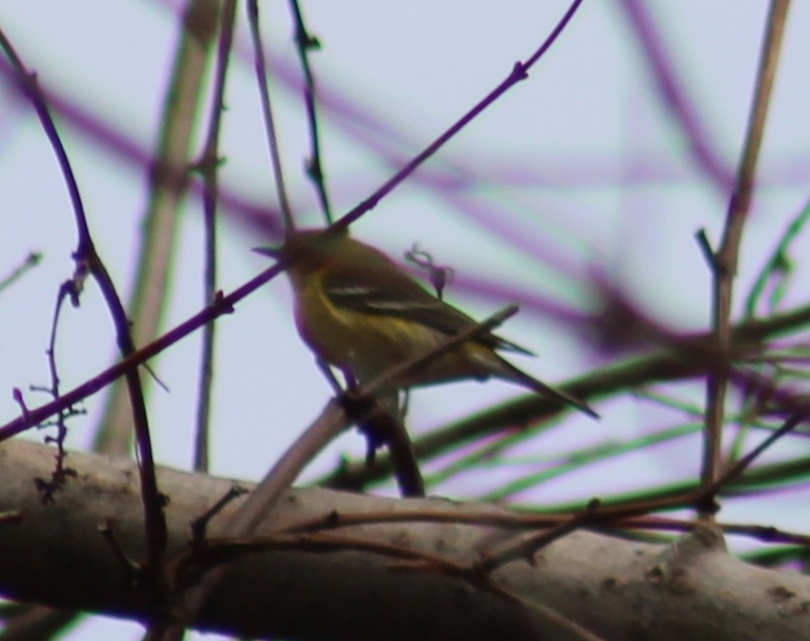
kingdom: Animalia
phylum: Chordata
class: Aves
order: Passeriformes
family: Parulidae
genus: Setophaga
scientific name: Setophaga pinus
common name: Pine warbler
